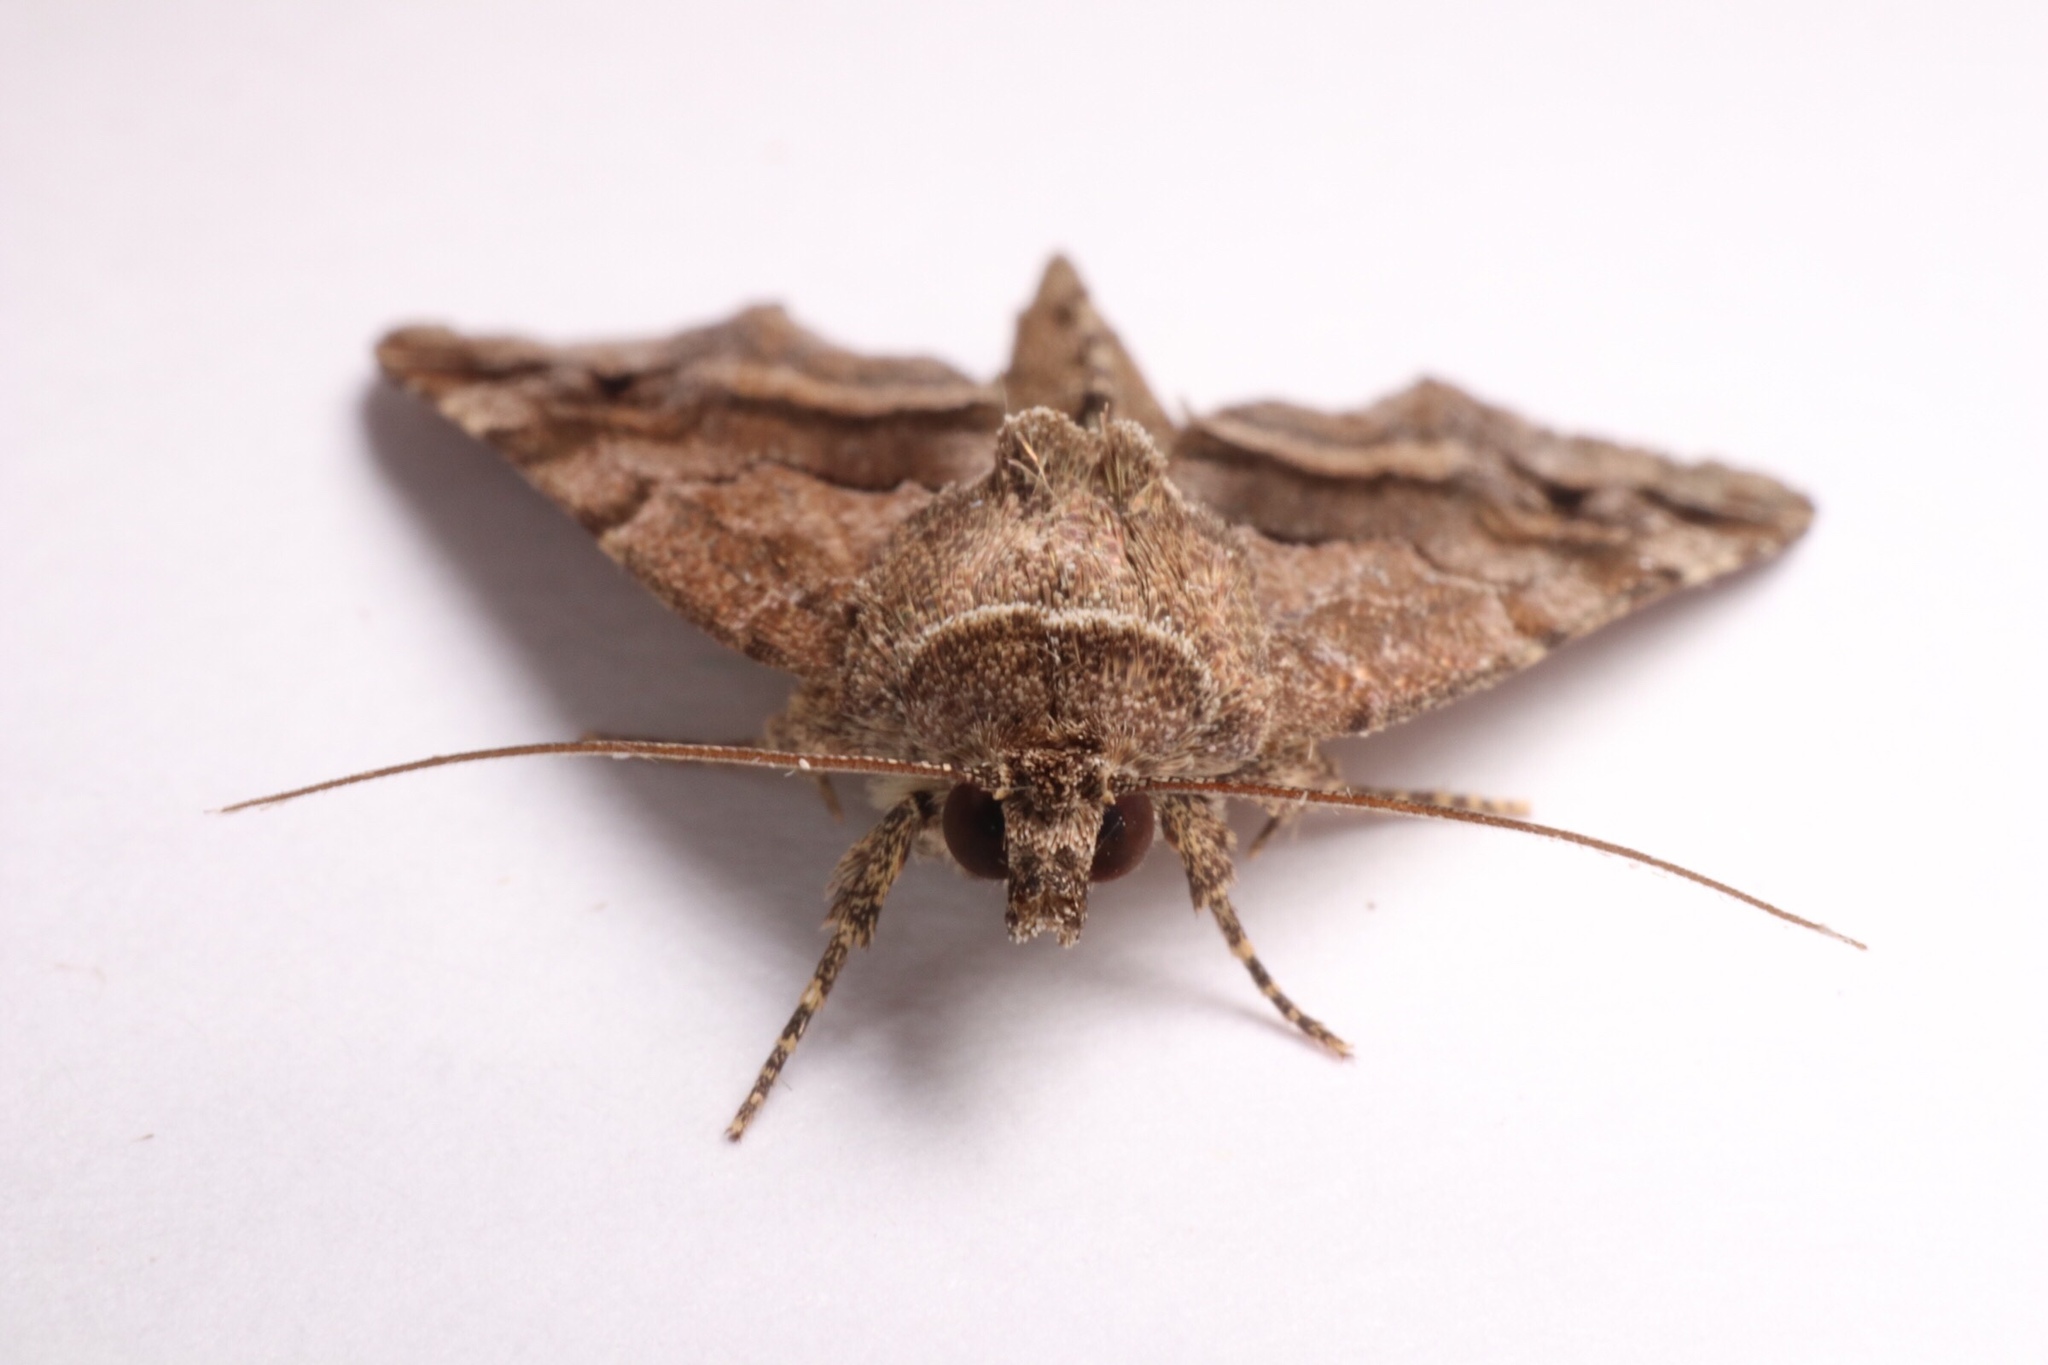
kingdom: Animalia
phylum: Arthropoda
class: Insecta
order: Lepidoptera
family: Noctuidae
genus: Niphonyx
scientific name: Niphonyx segregata
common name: Hops angleshade moth
